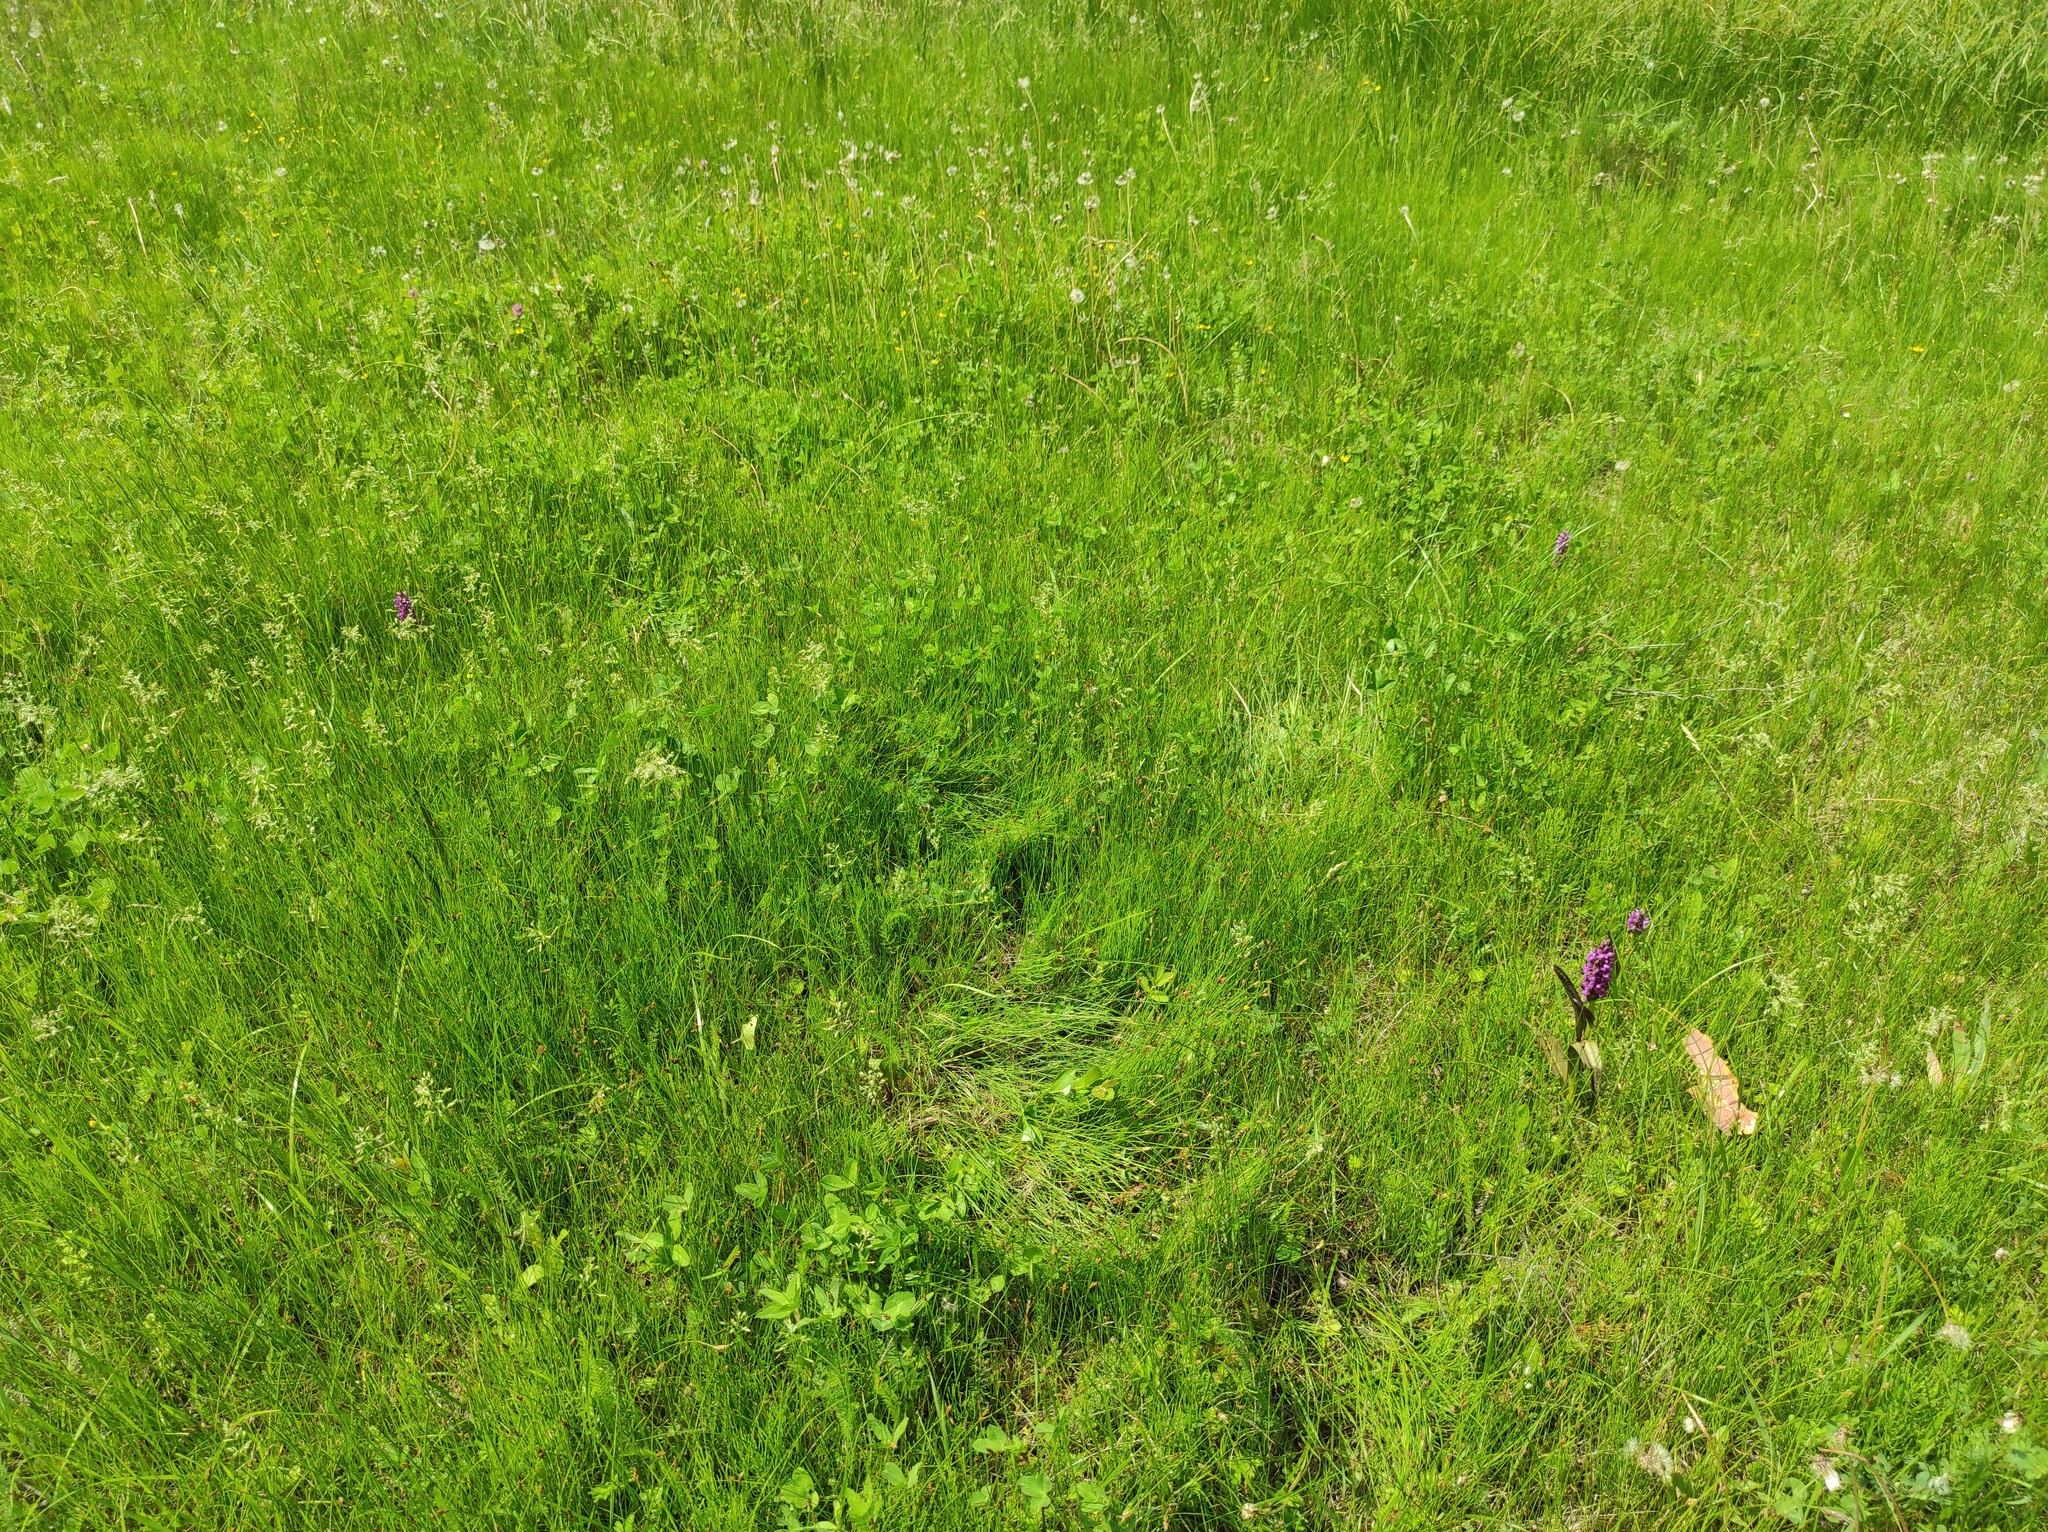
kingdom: Plantae
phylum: Tracheophyta
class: Liliopsida
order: Asparagales
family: Orchidaceae
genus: Dactylorhiza
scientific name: Dactylorhiza incarnata
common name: Early marsh-orchid
